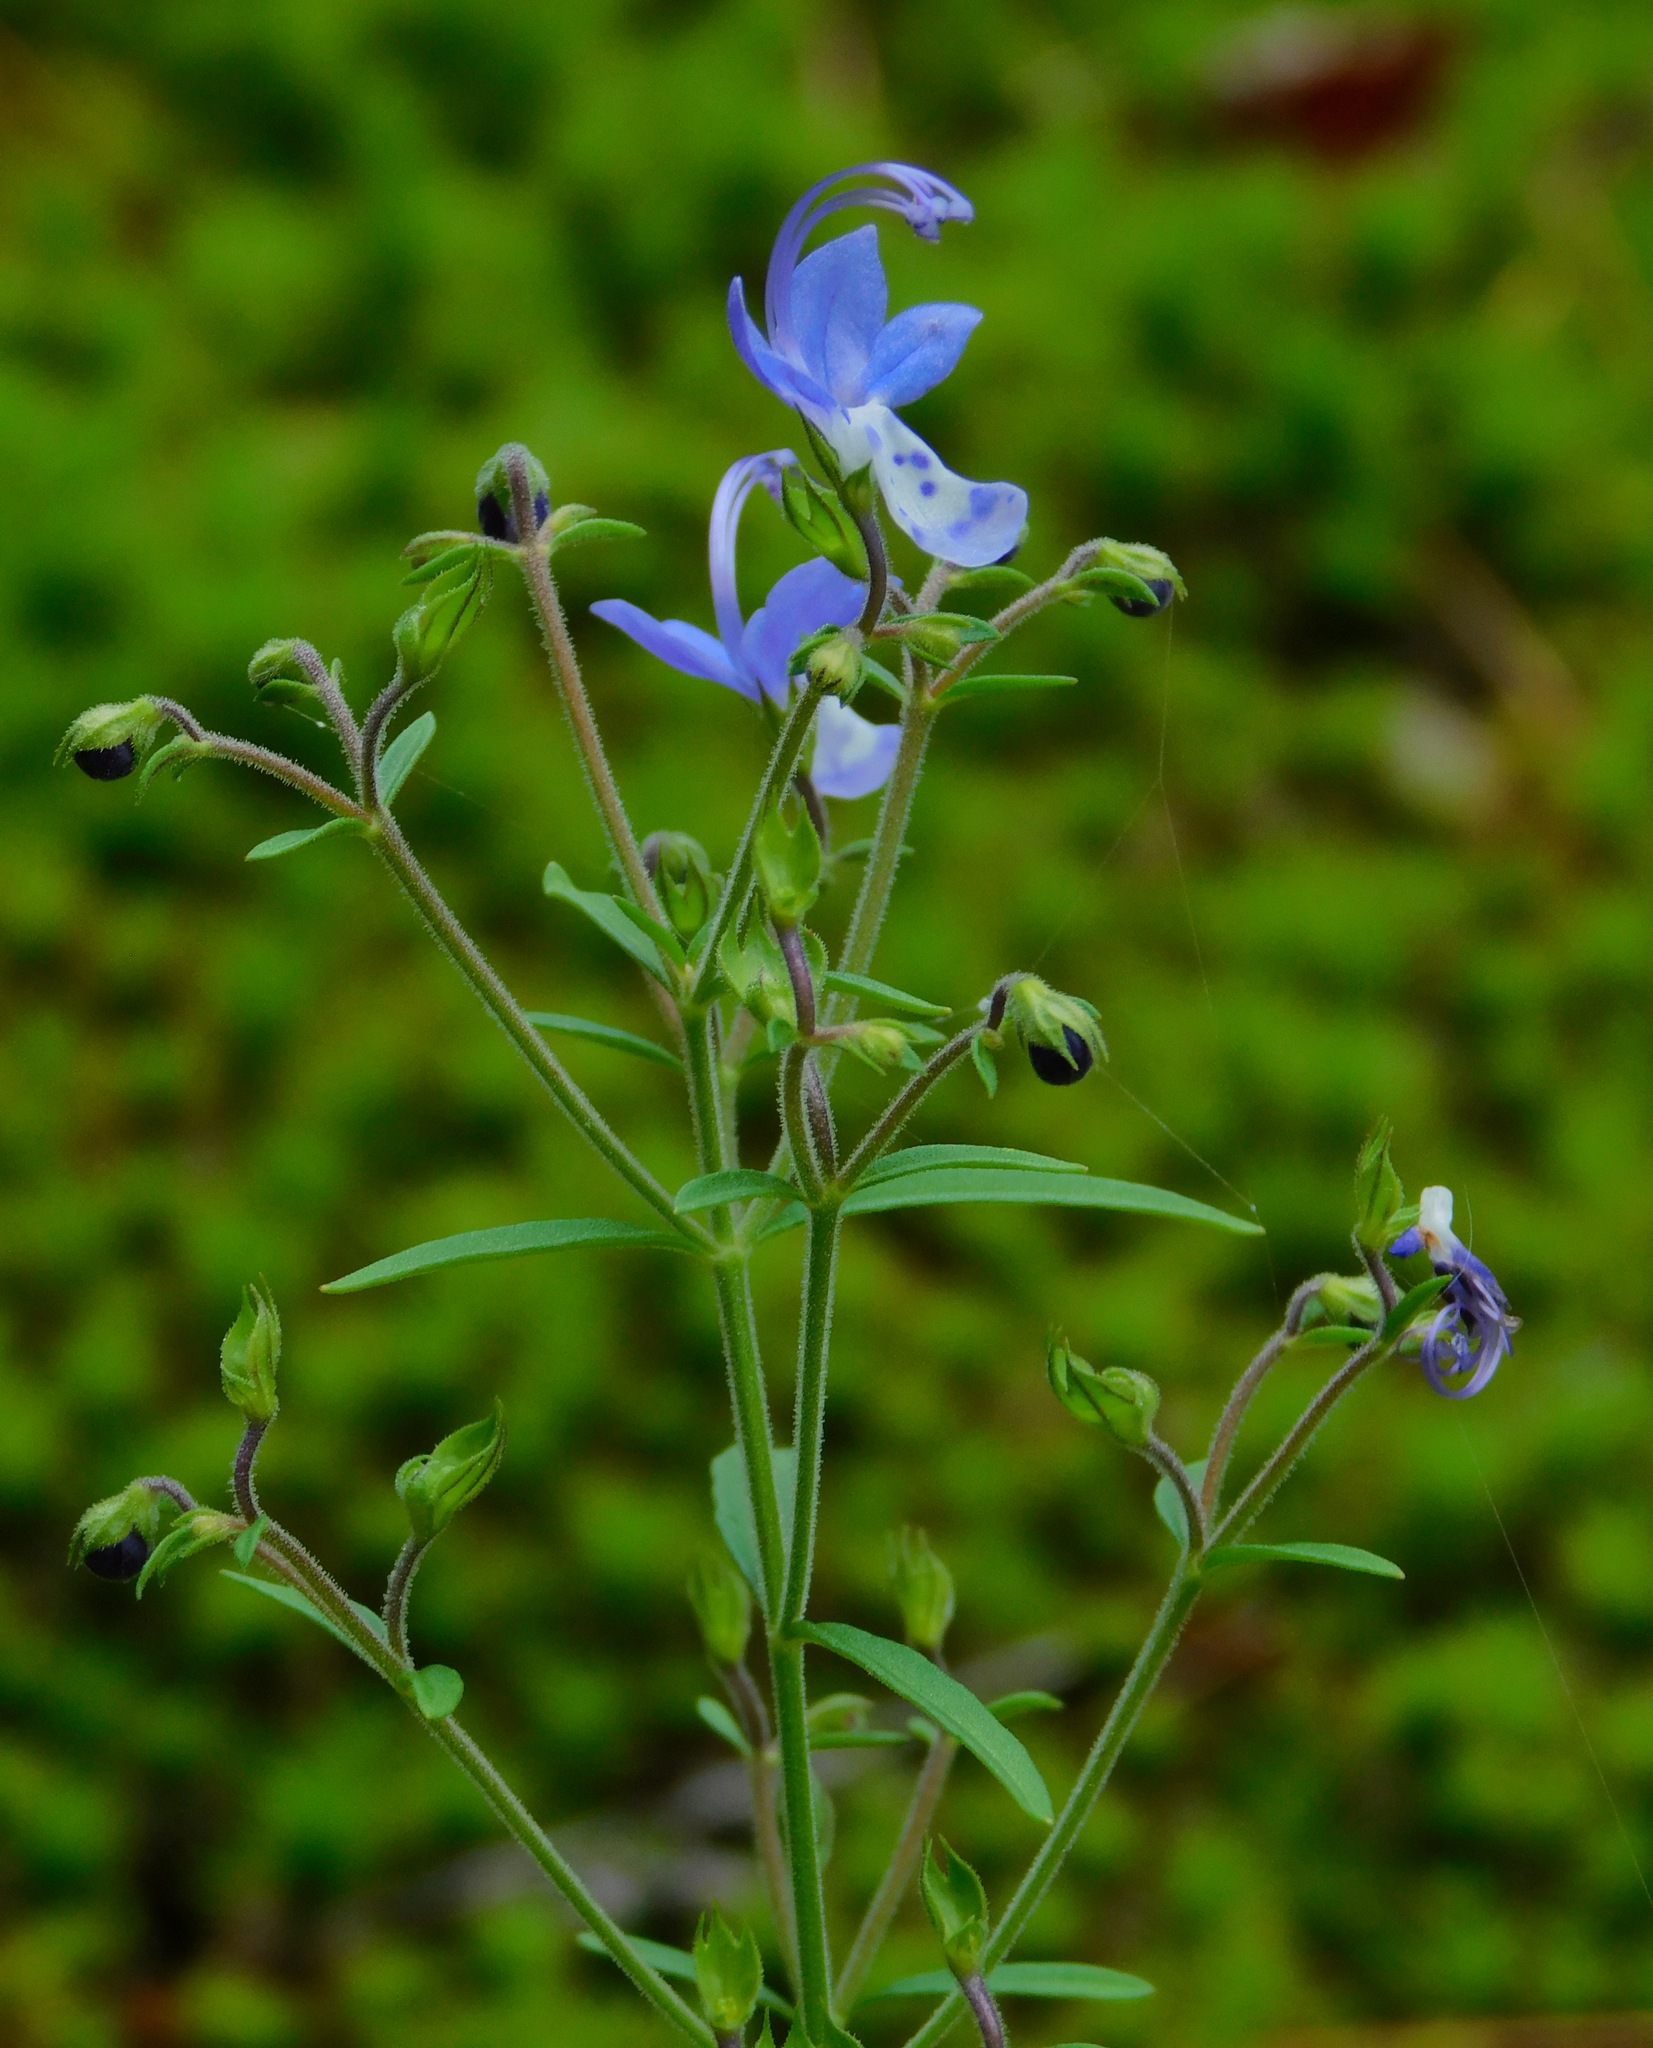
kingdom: Plantae
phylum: Tracheophyta
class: Magnoliopsida
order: Lamiales
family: Lamiaceae
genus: Trichostema
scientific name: Trichostema setaceum
